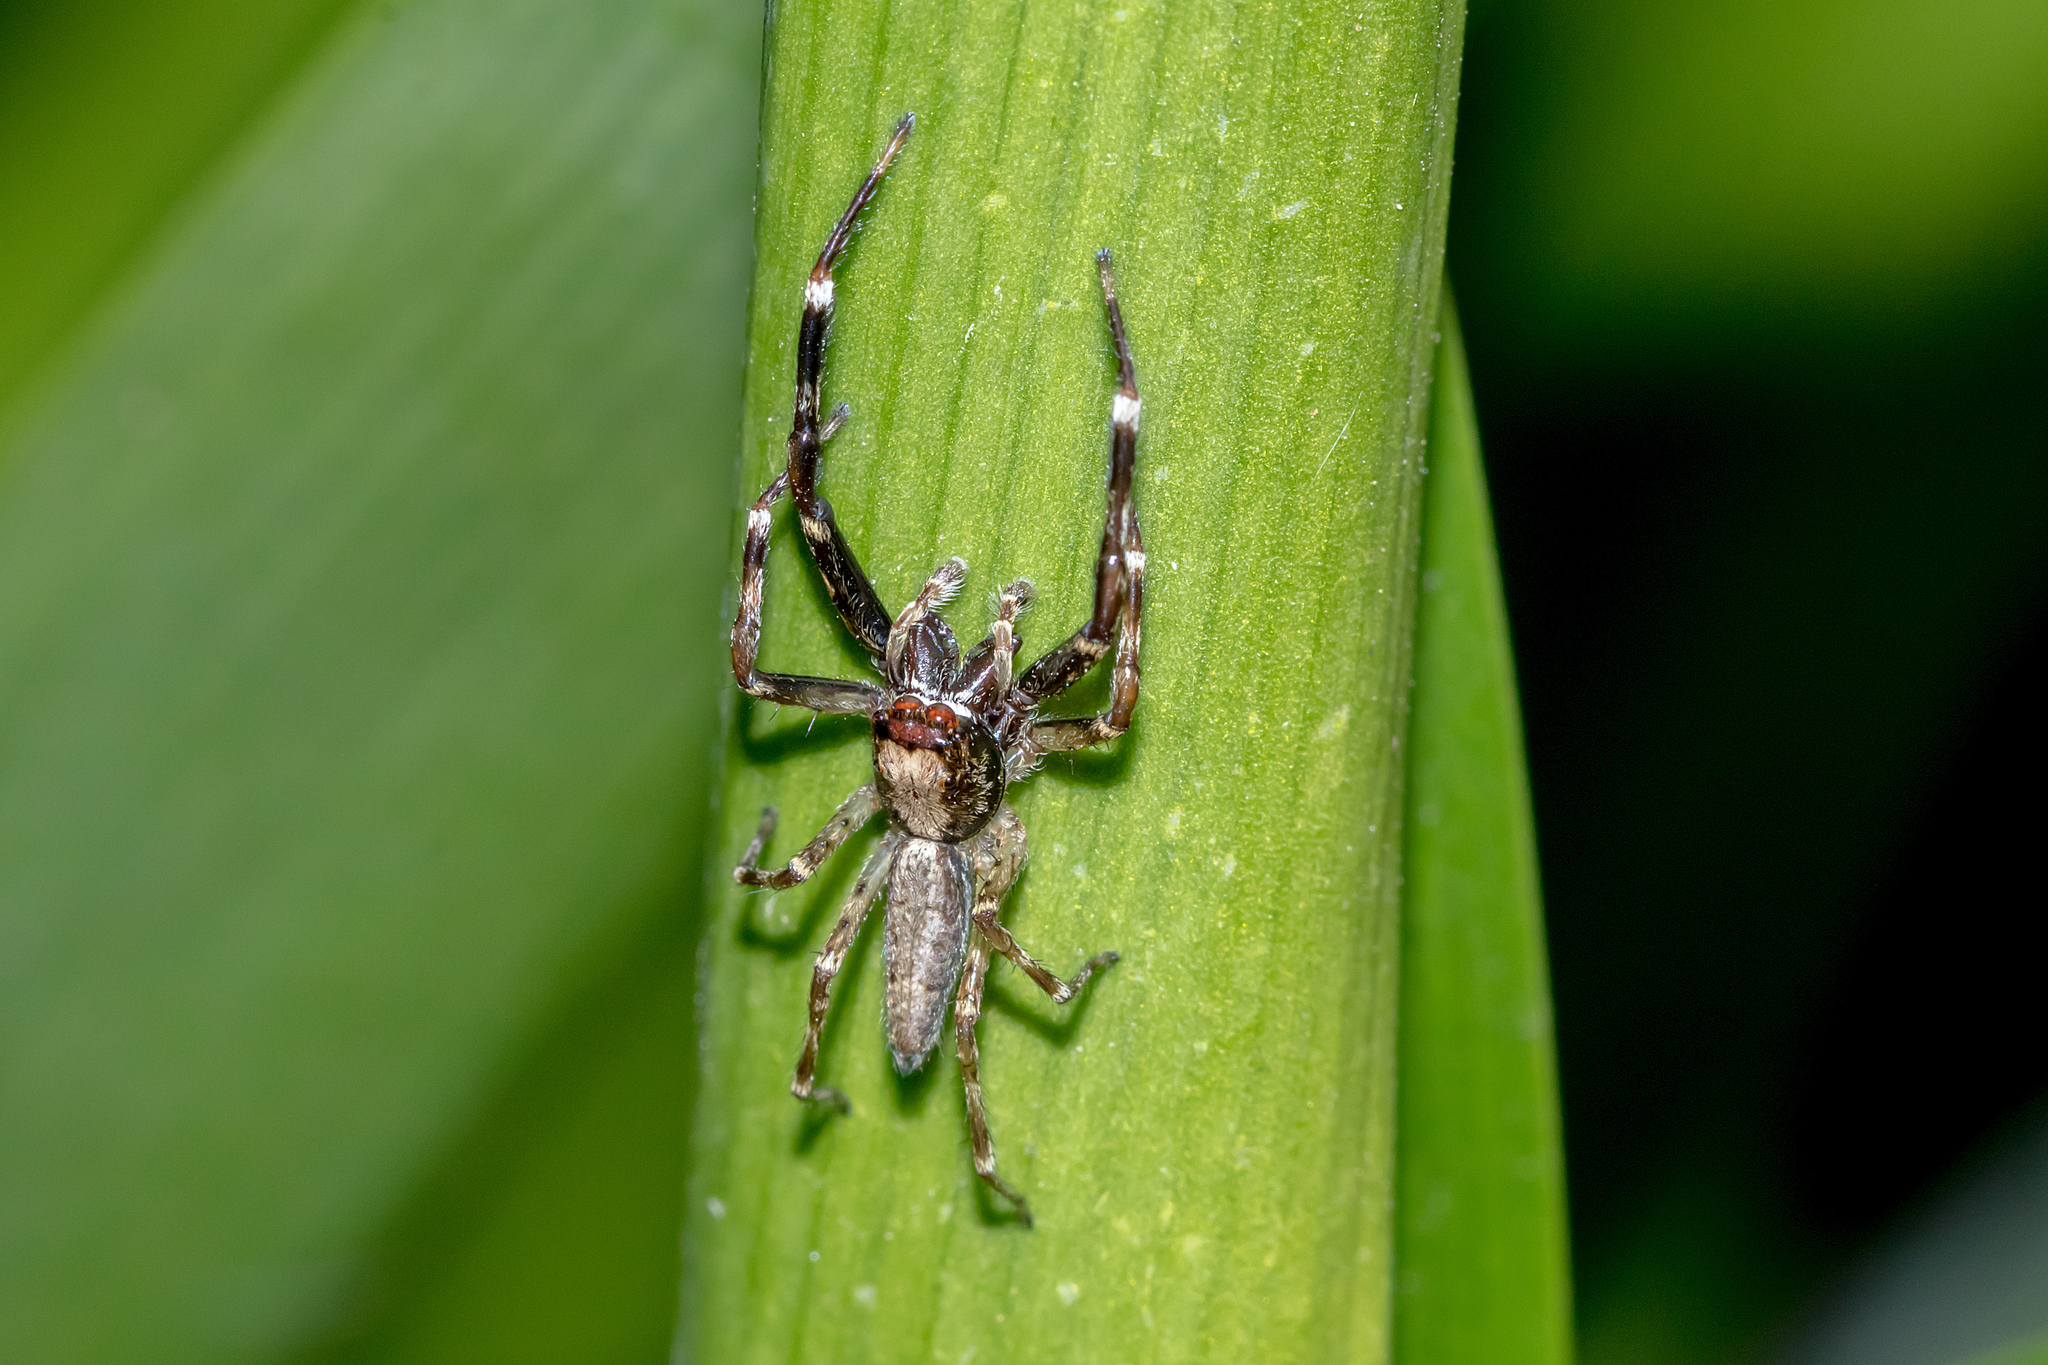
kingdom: Animalia
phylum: Arthropoda
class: Arachnida
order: Araneae
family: Salticidae
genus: Helpis
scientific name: Helpis minitabunda
